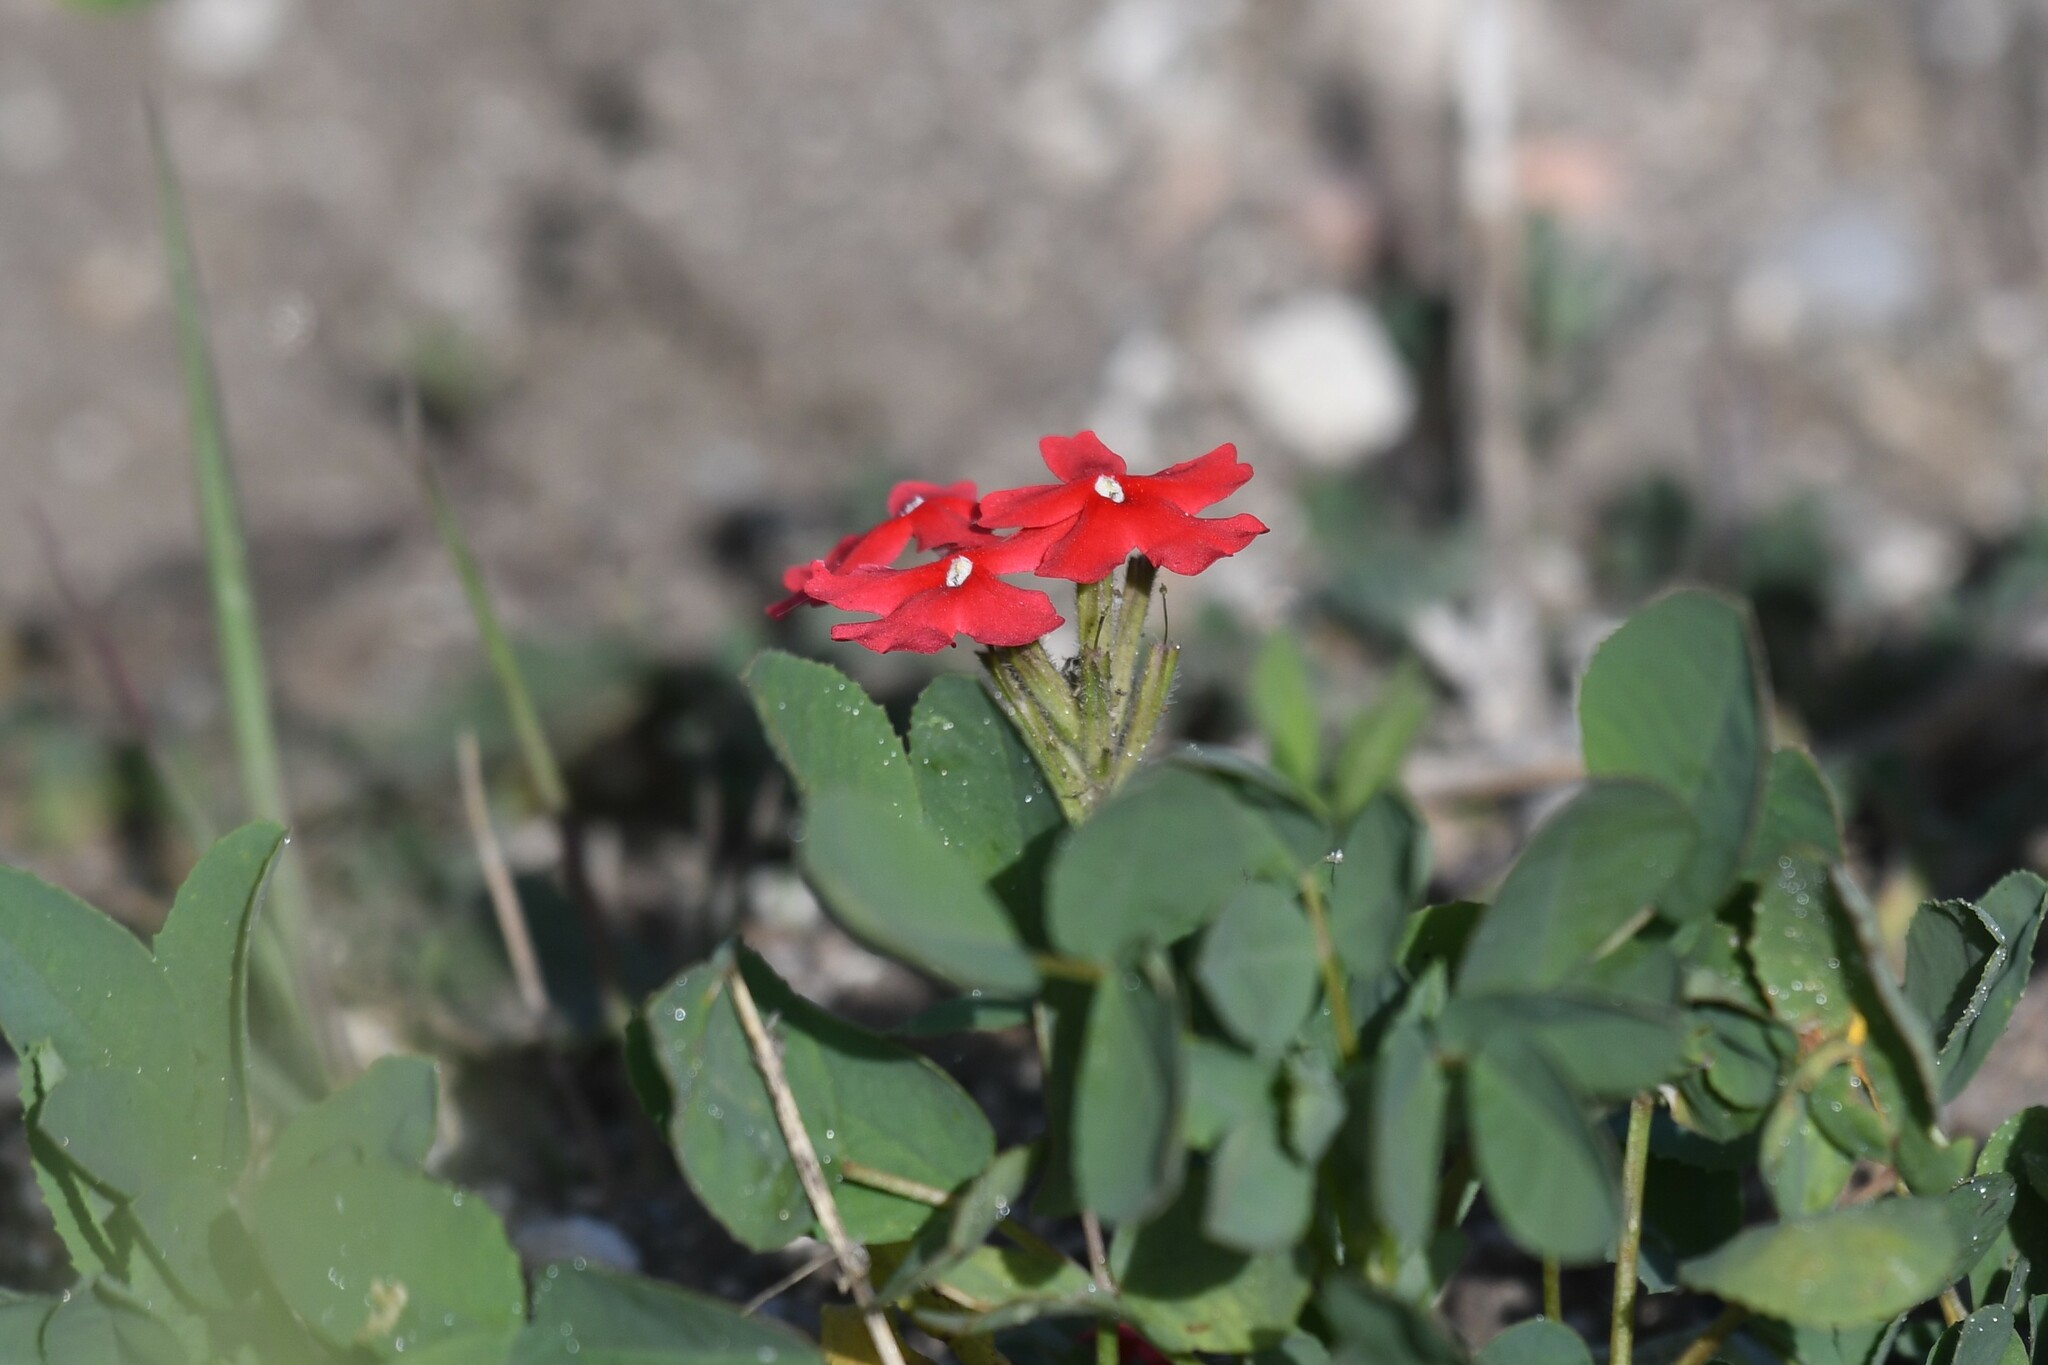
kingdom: Plantae
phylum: Tracheophyta
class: Magnoliopsida
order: Lamiales
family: Verbenaceae
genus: Verbena
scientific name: Verbena peruviana
